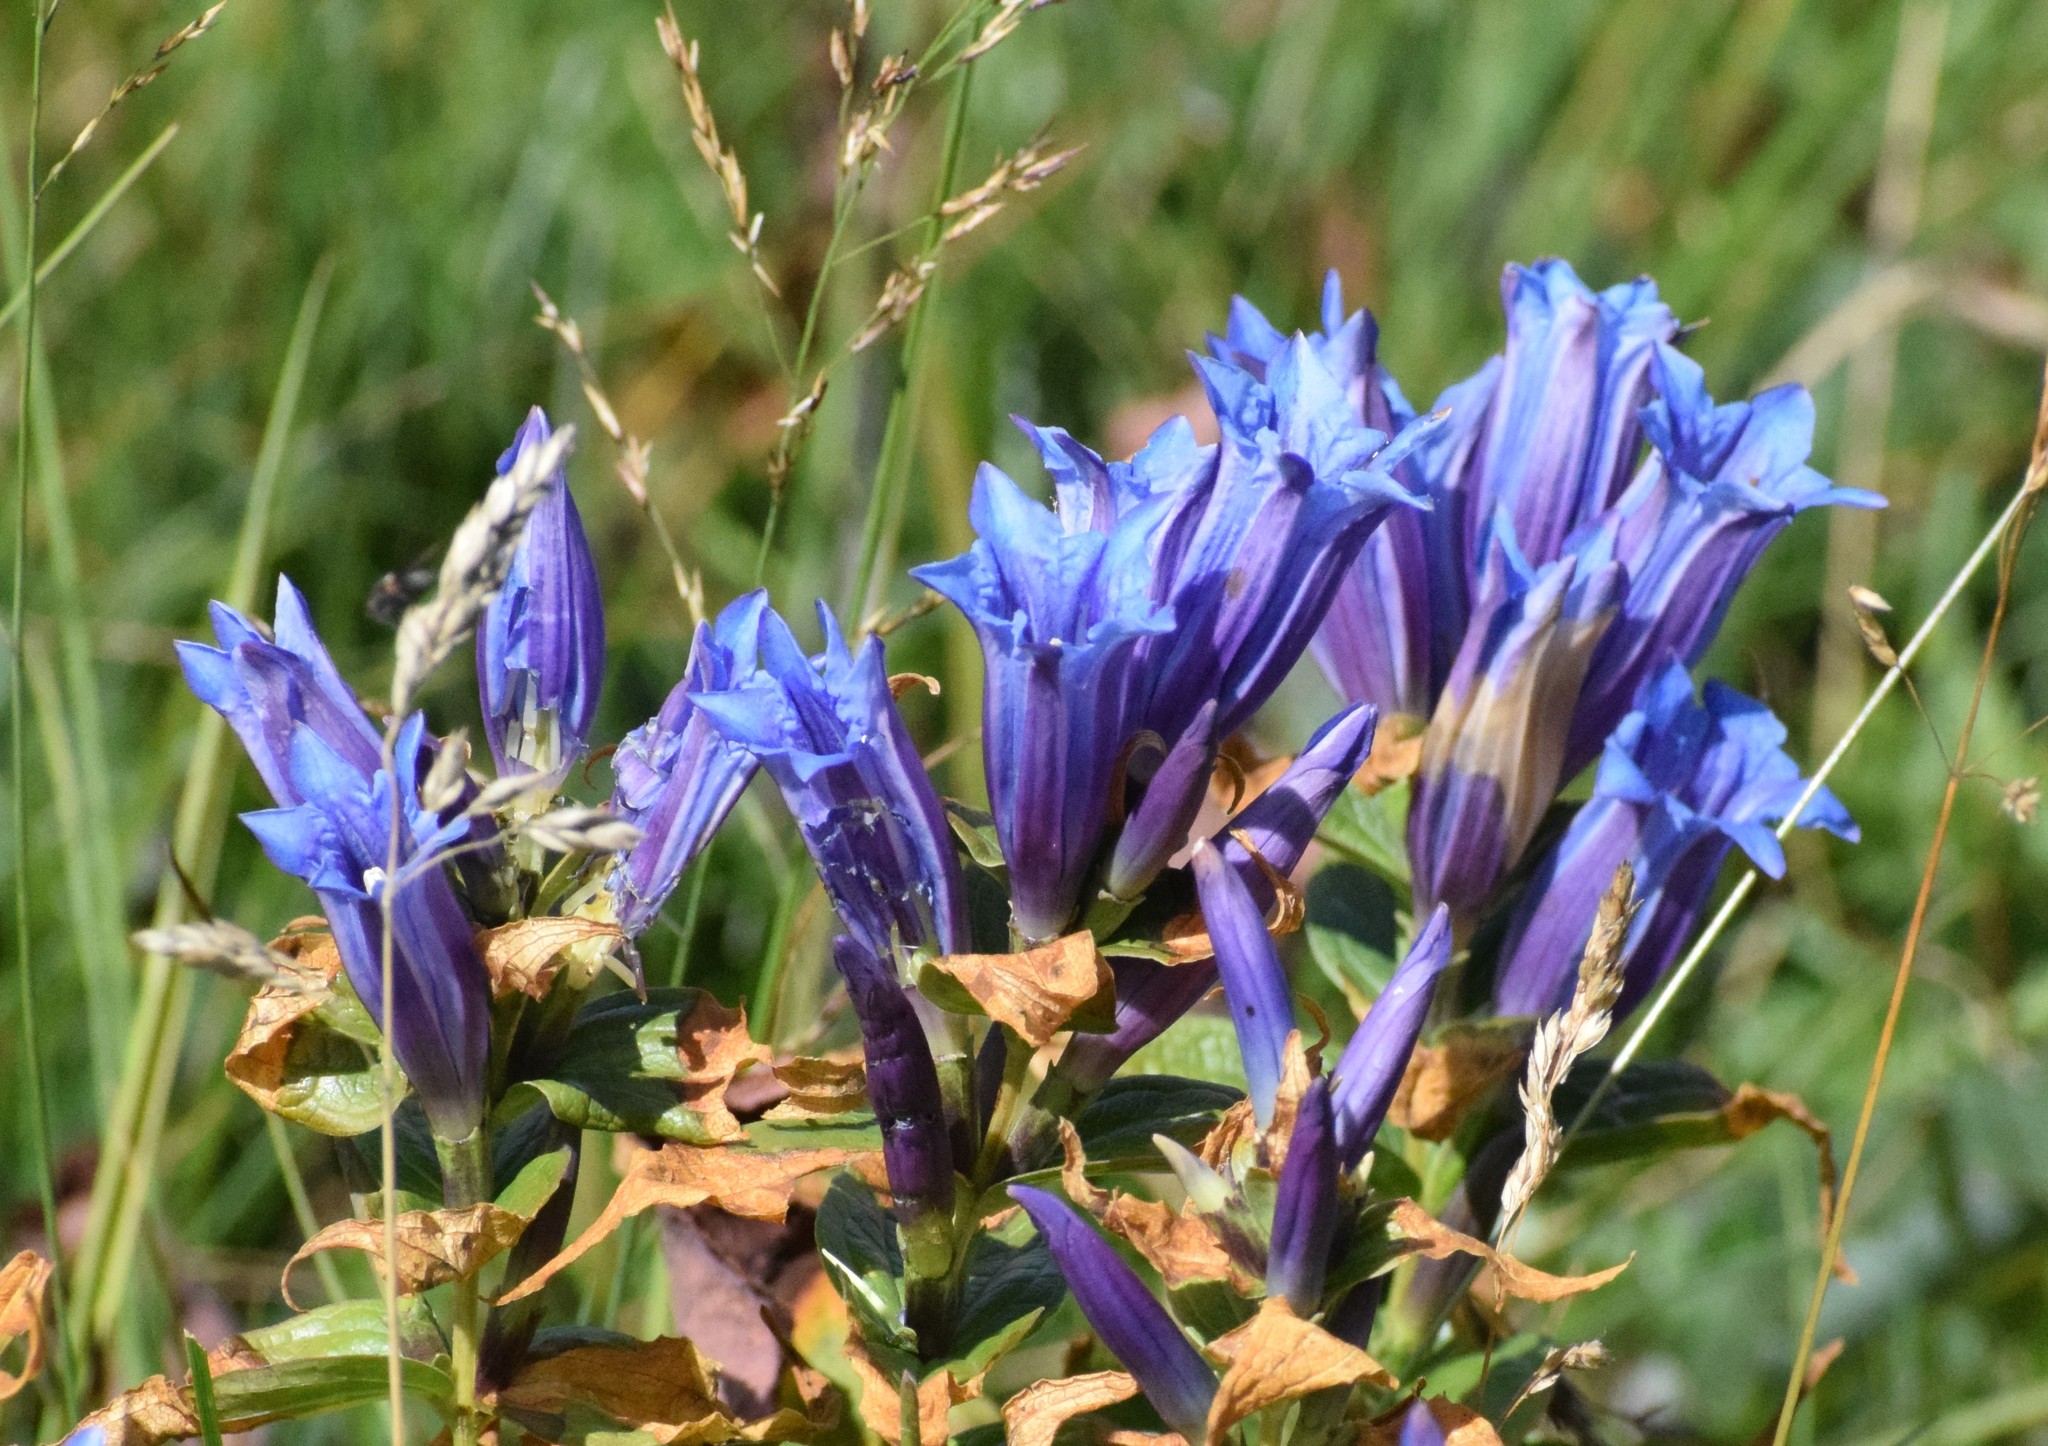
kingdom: Plantae
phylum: Tracheophyta
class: Magnoliopsida
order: Gentianales
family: Gentianaceae
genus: Gentiana
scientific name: Gentiana asclepiadea
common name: Willow gentian
